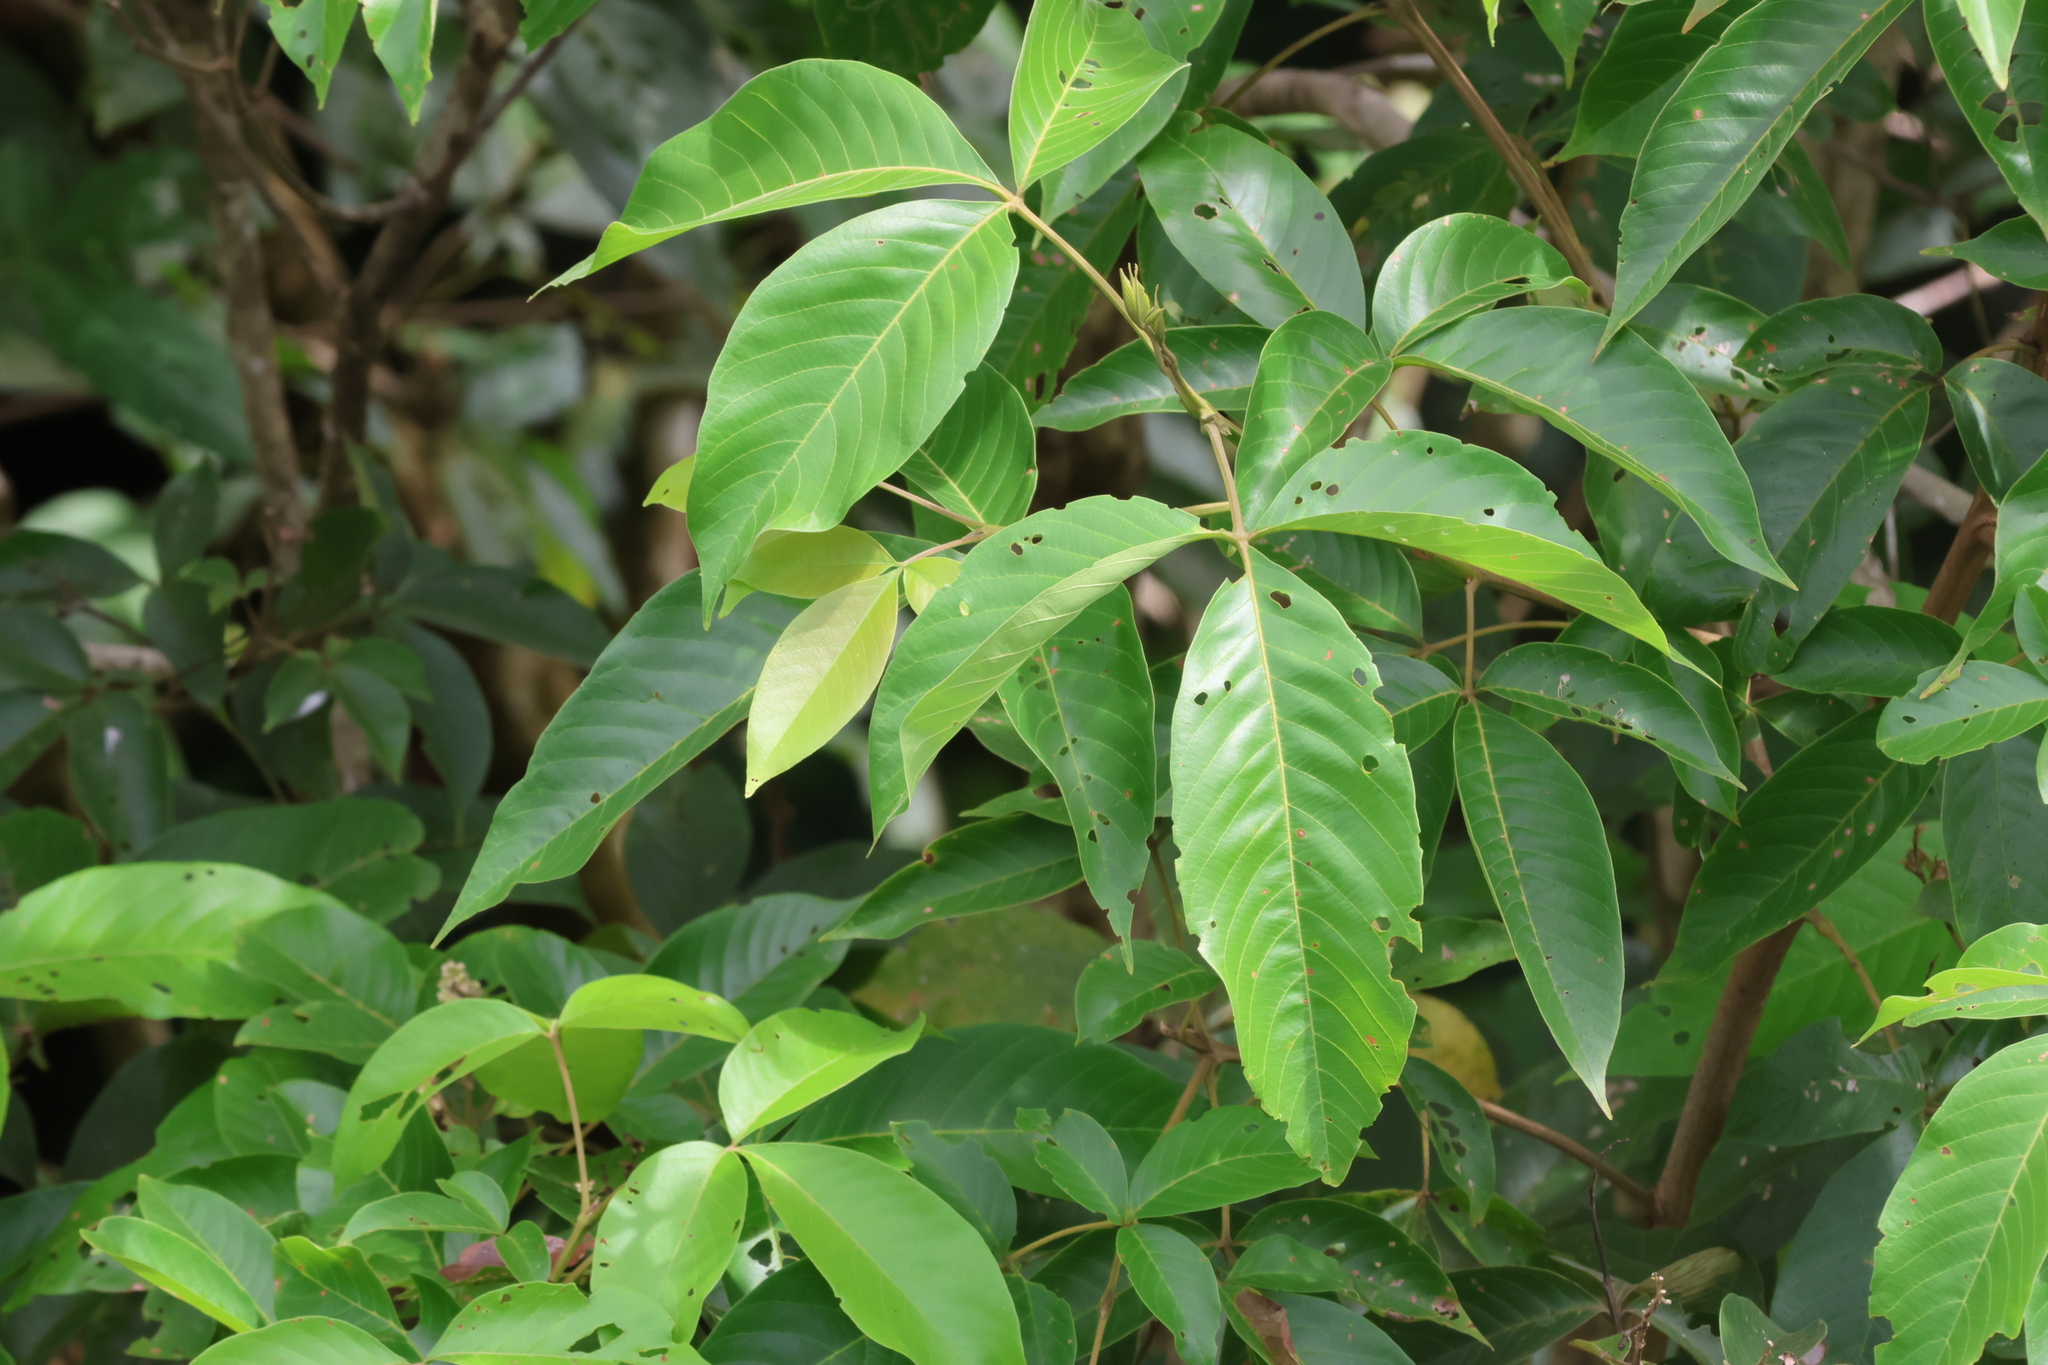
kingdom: Plantae
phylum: Tracheophyta
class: Magnoliopsida
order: Lamiales
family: Lamiaceae
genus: Vitex
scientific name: Vitex pinnata
